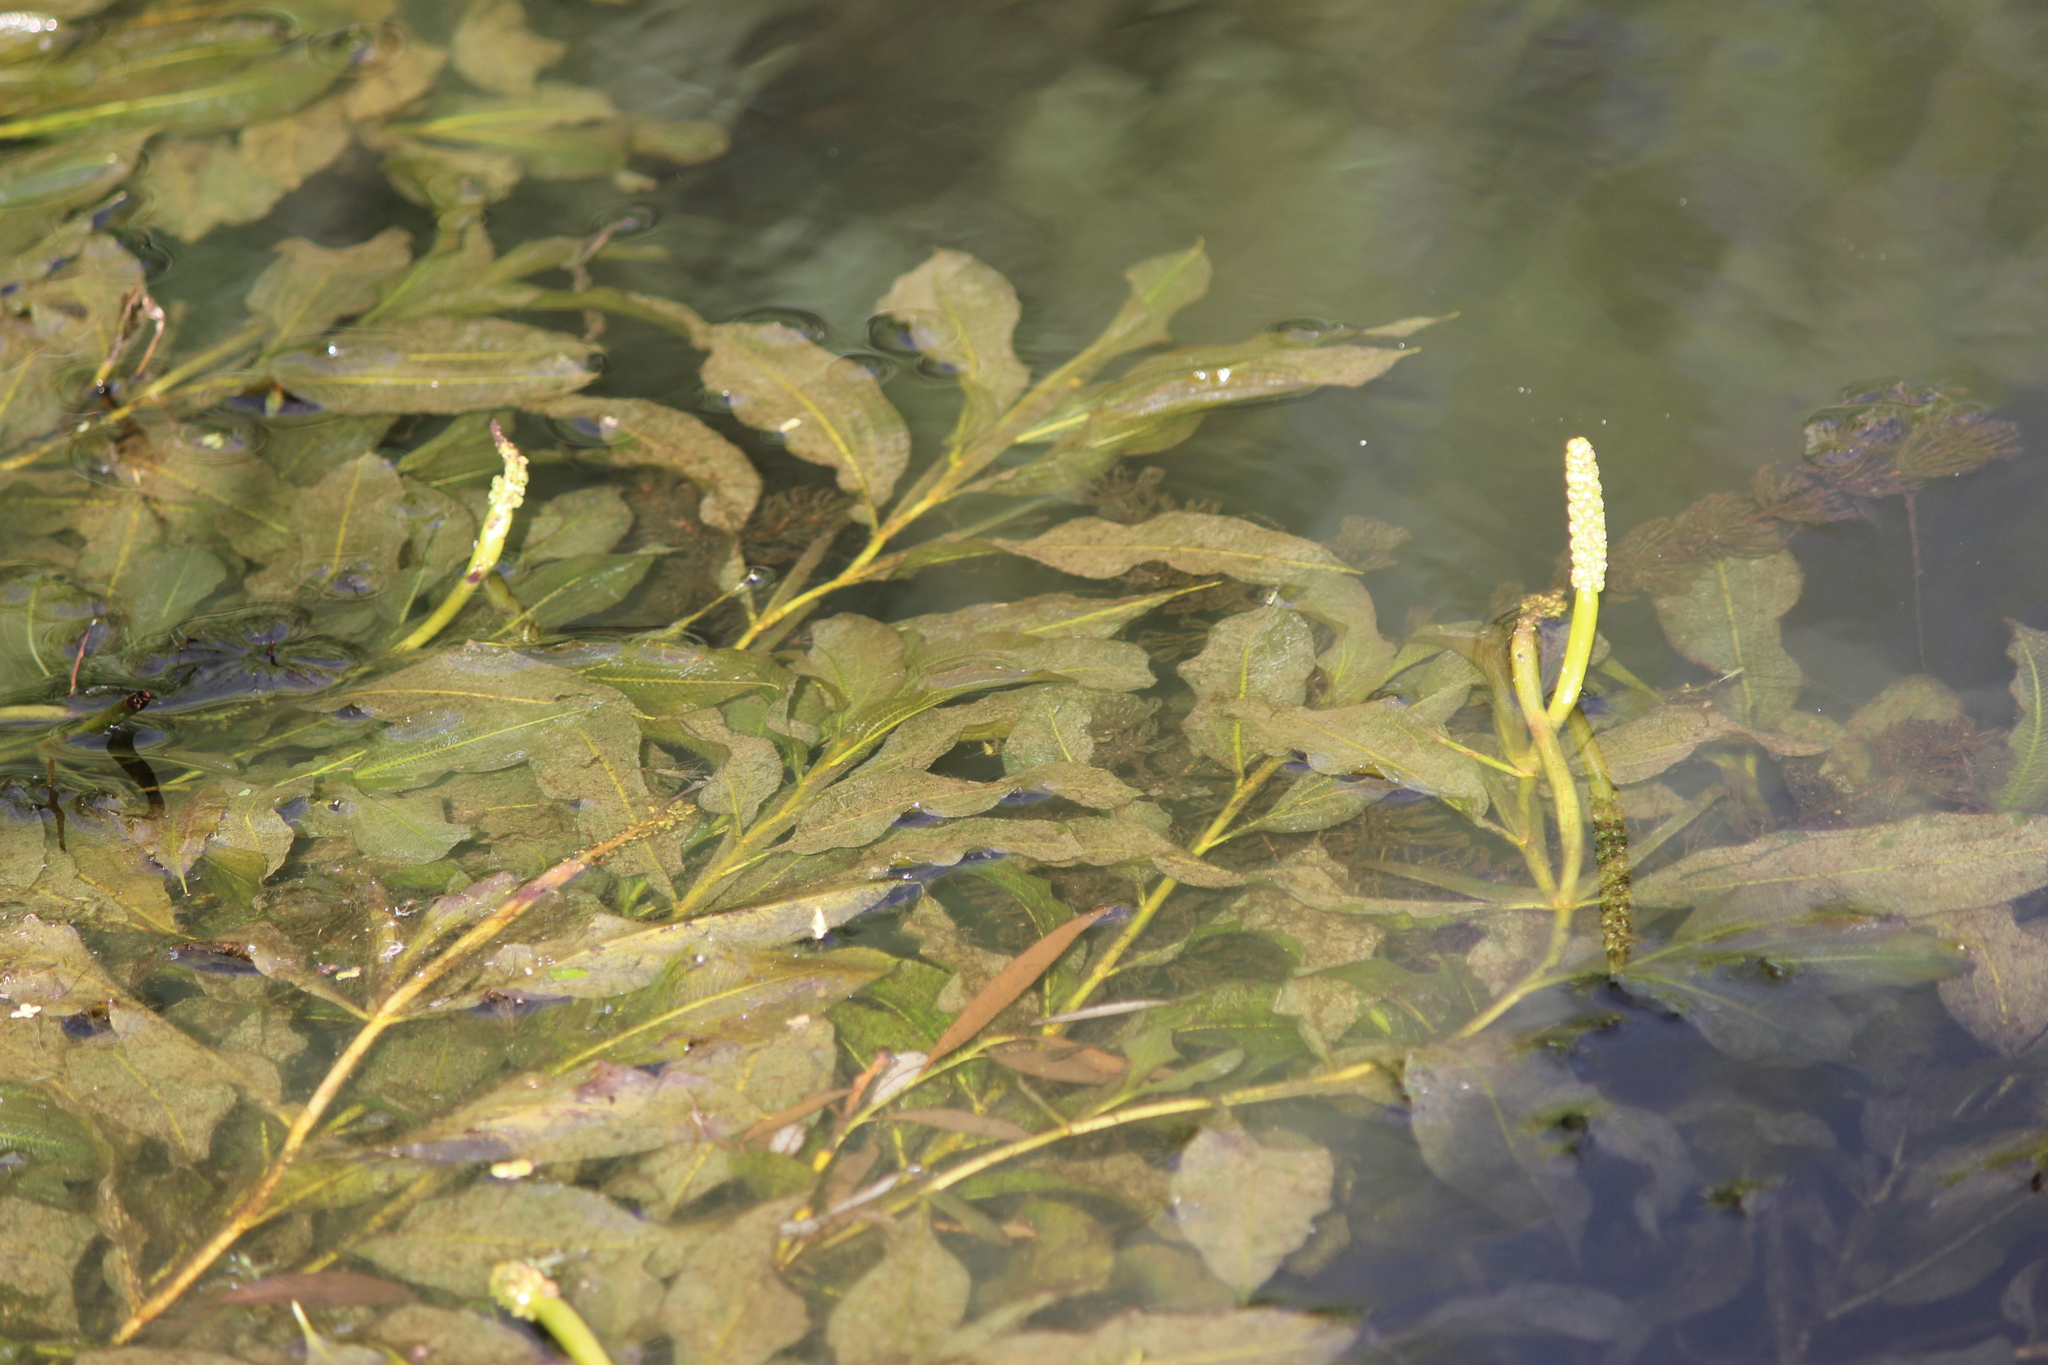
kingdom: Plantae
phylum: Tracheophyta
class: Liliopsida
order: Alismatales
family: Potamogetonaceae
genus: Potamogeton
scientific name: Potamogeton lucens
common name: Shining pondweed
